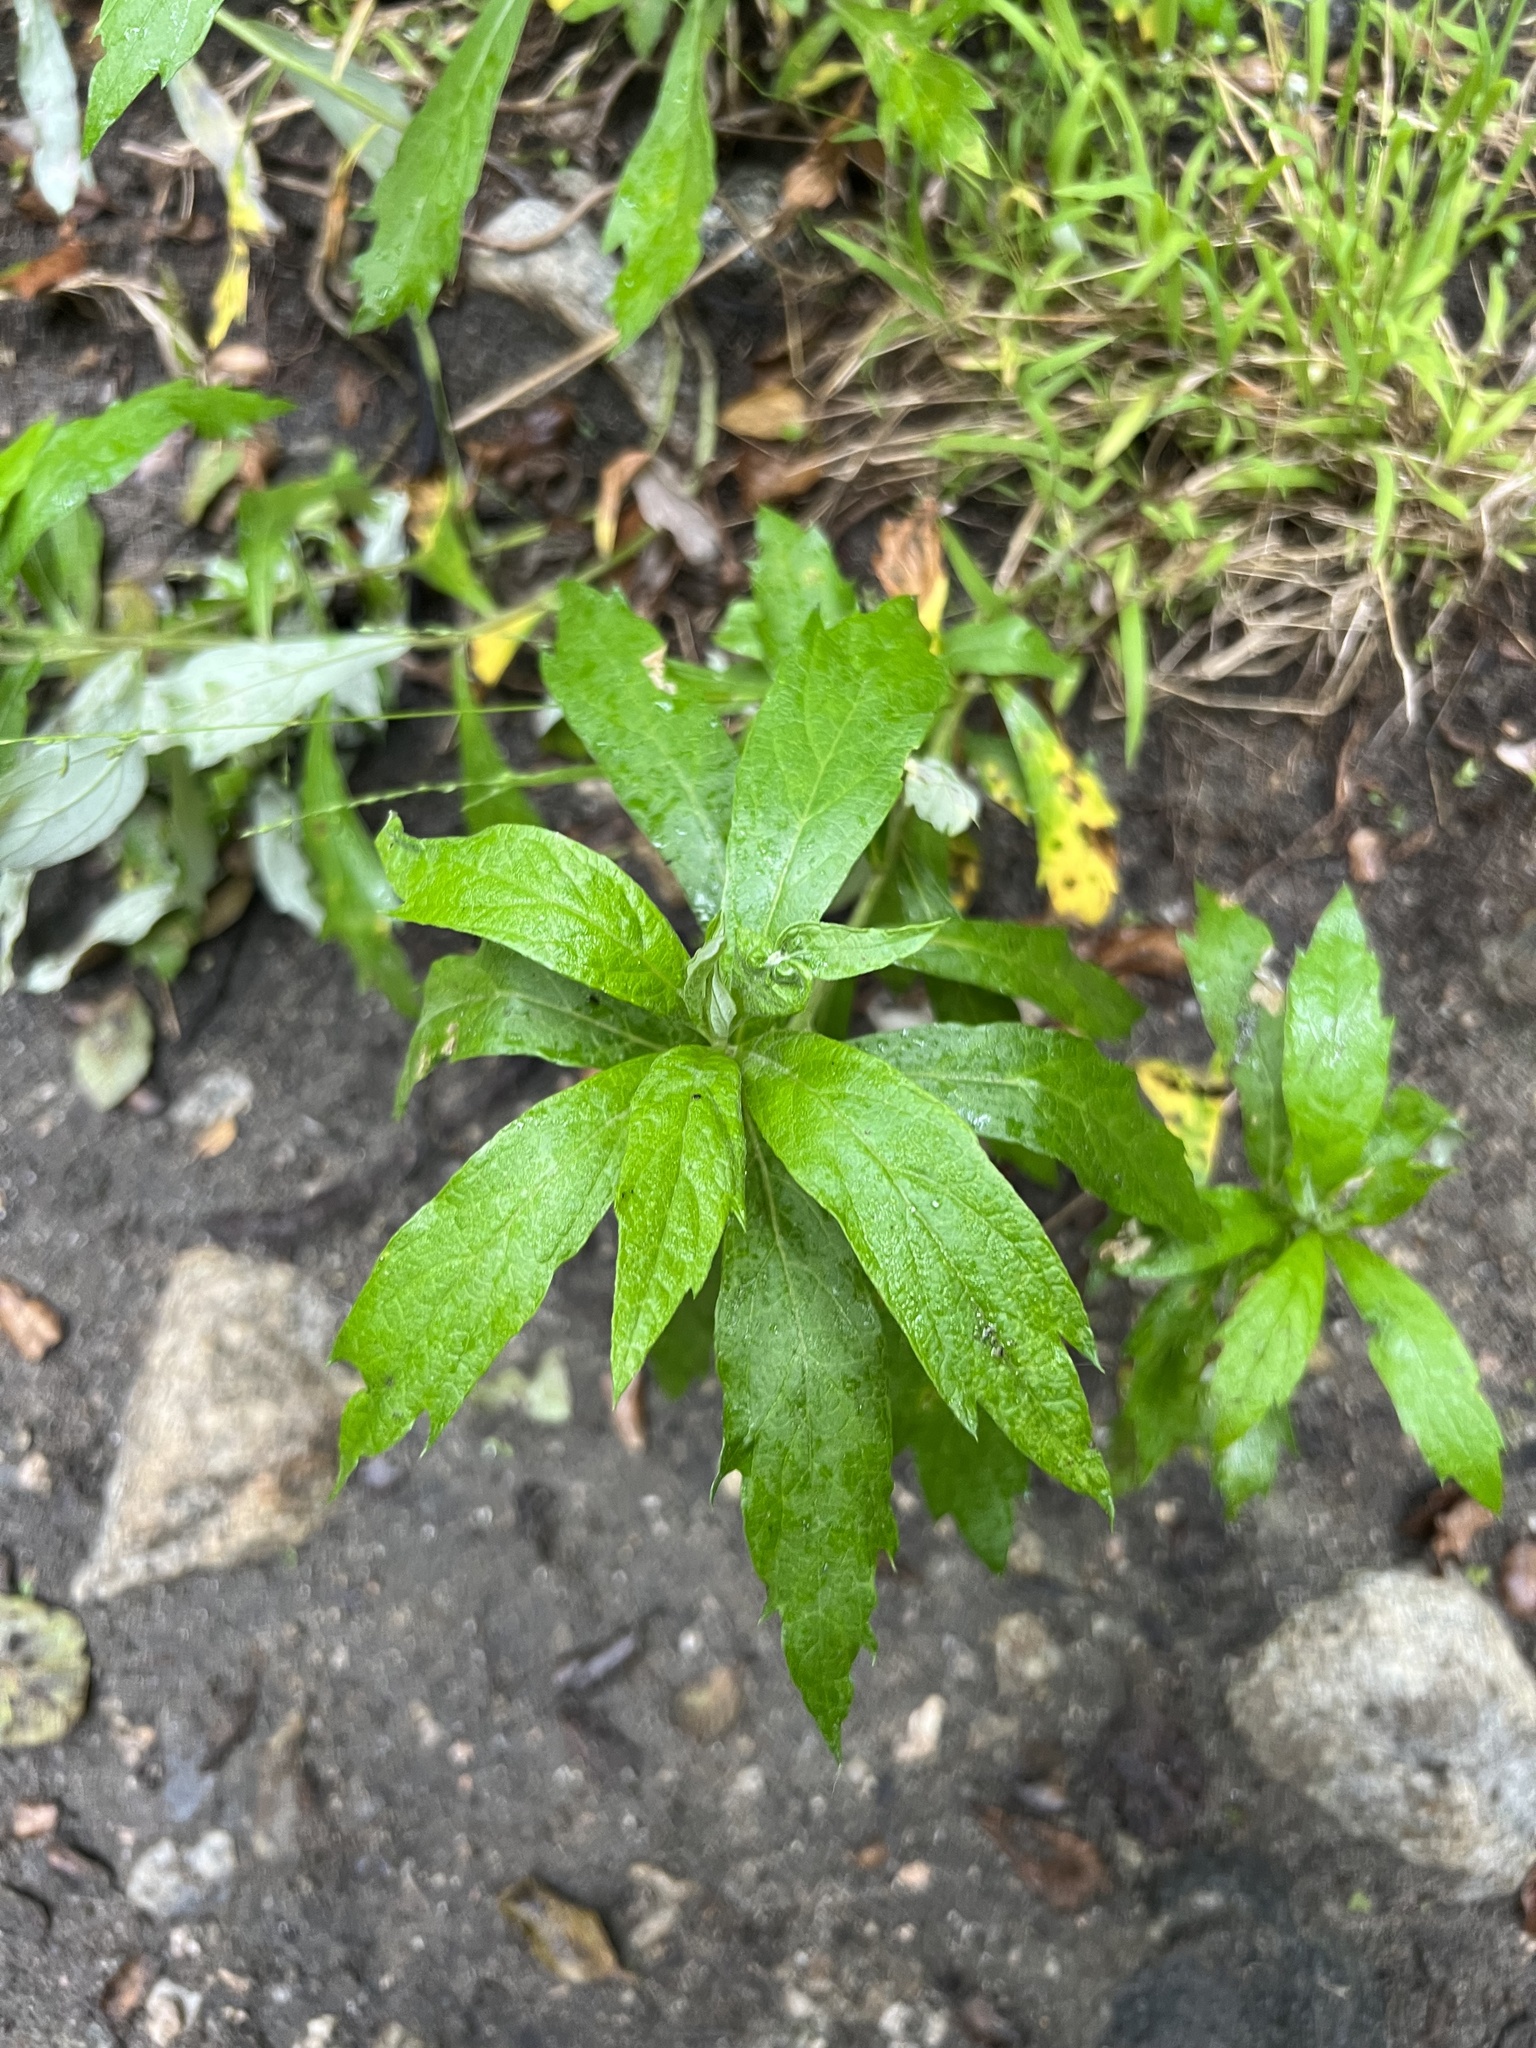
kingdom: Plantae
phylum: Tracheophyta
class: Magnoliopsida
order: Asterales
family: Asteraceae
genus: Artemisia
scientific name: Artemisia douglasiana
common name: Northwest mugwort
